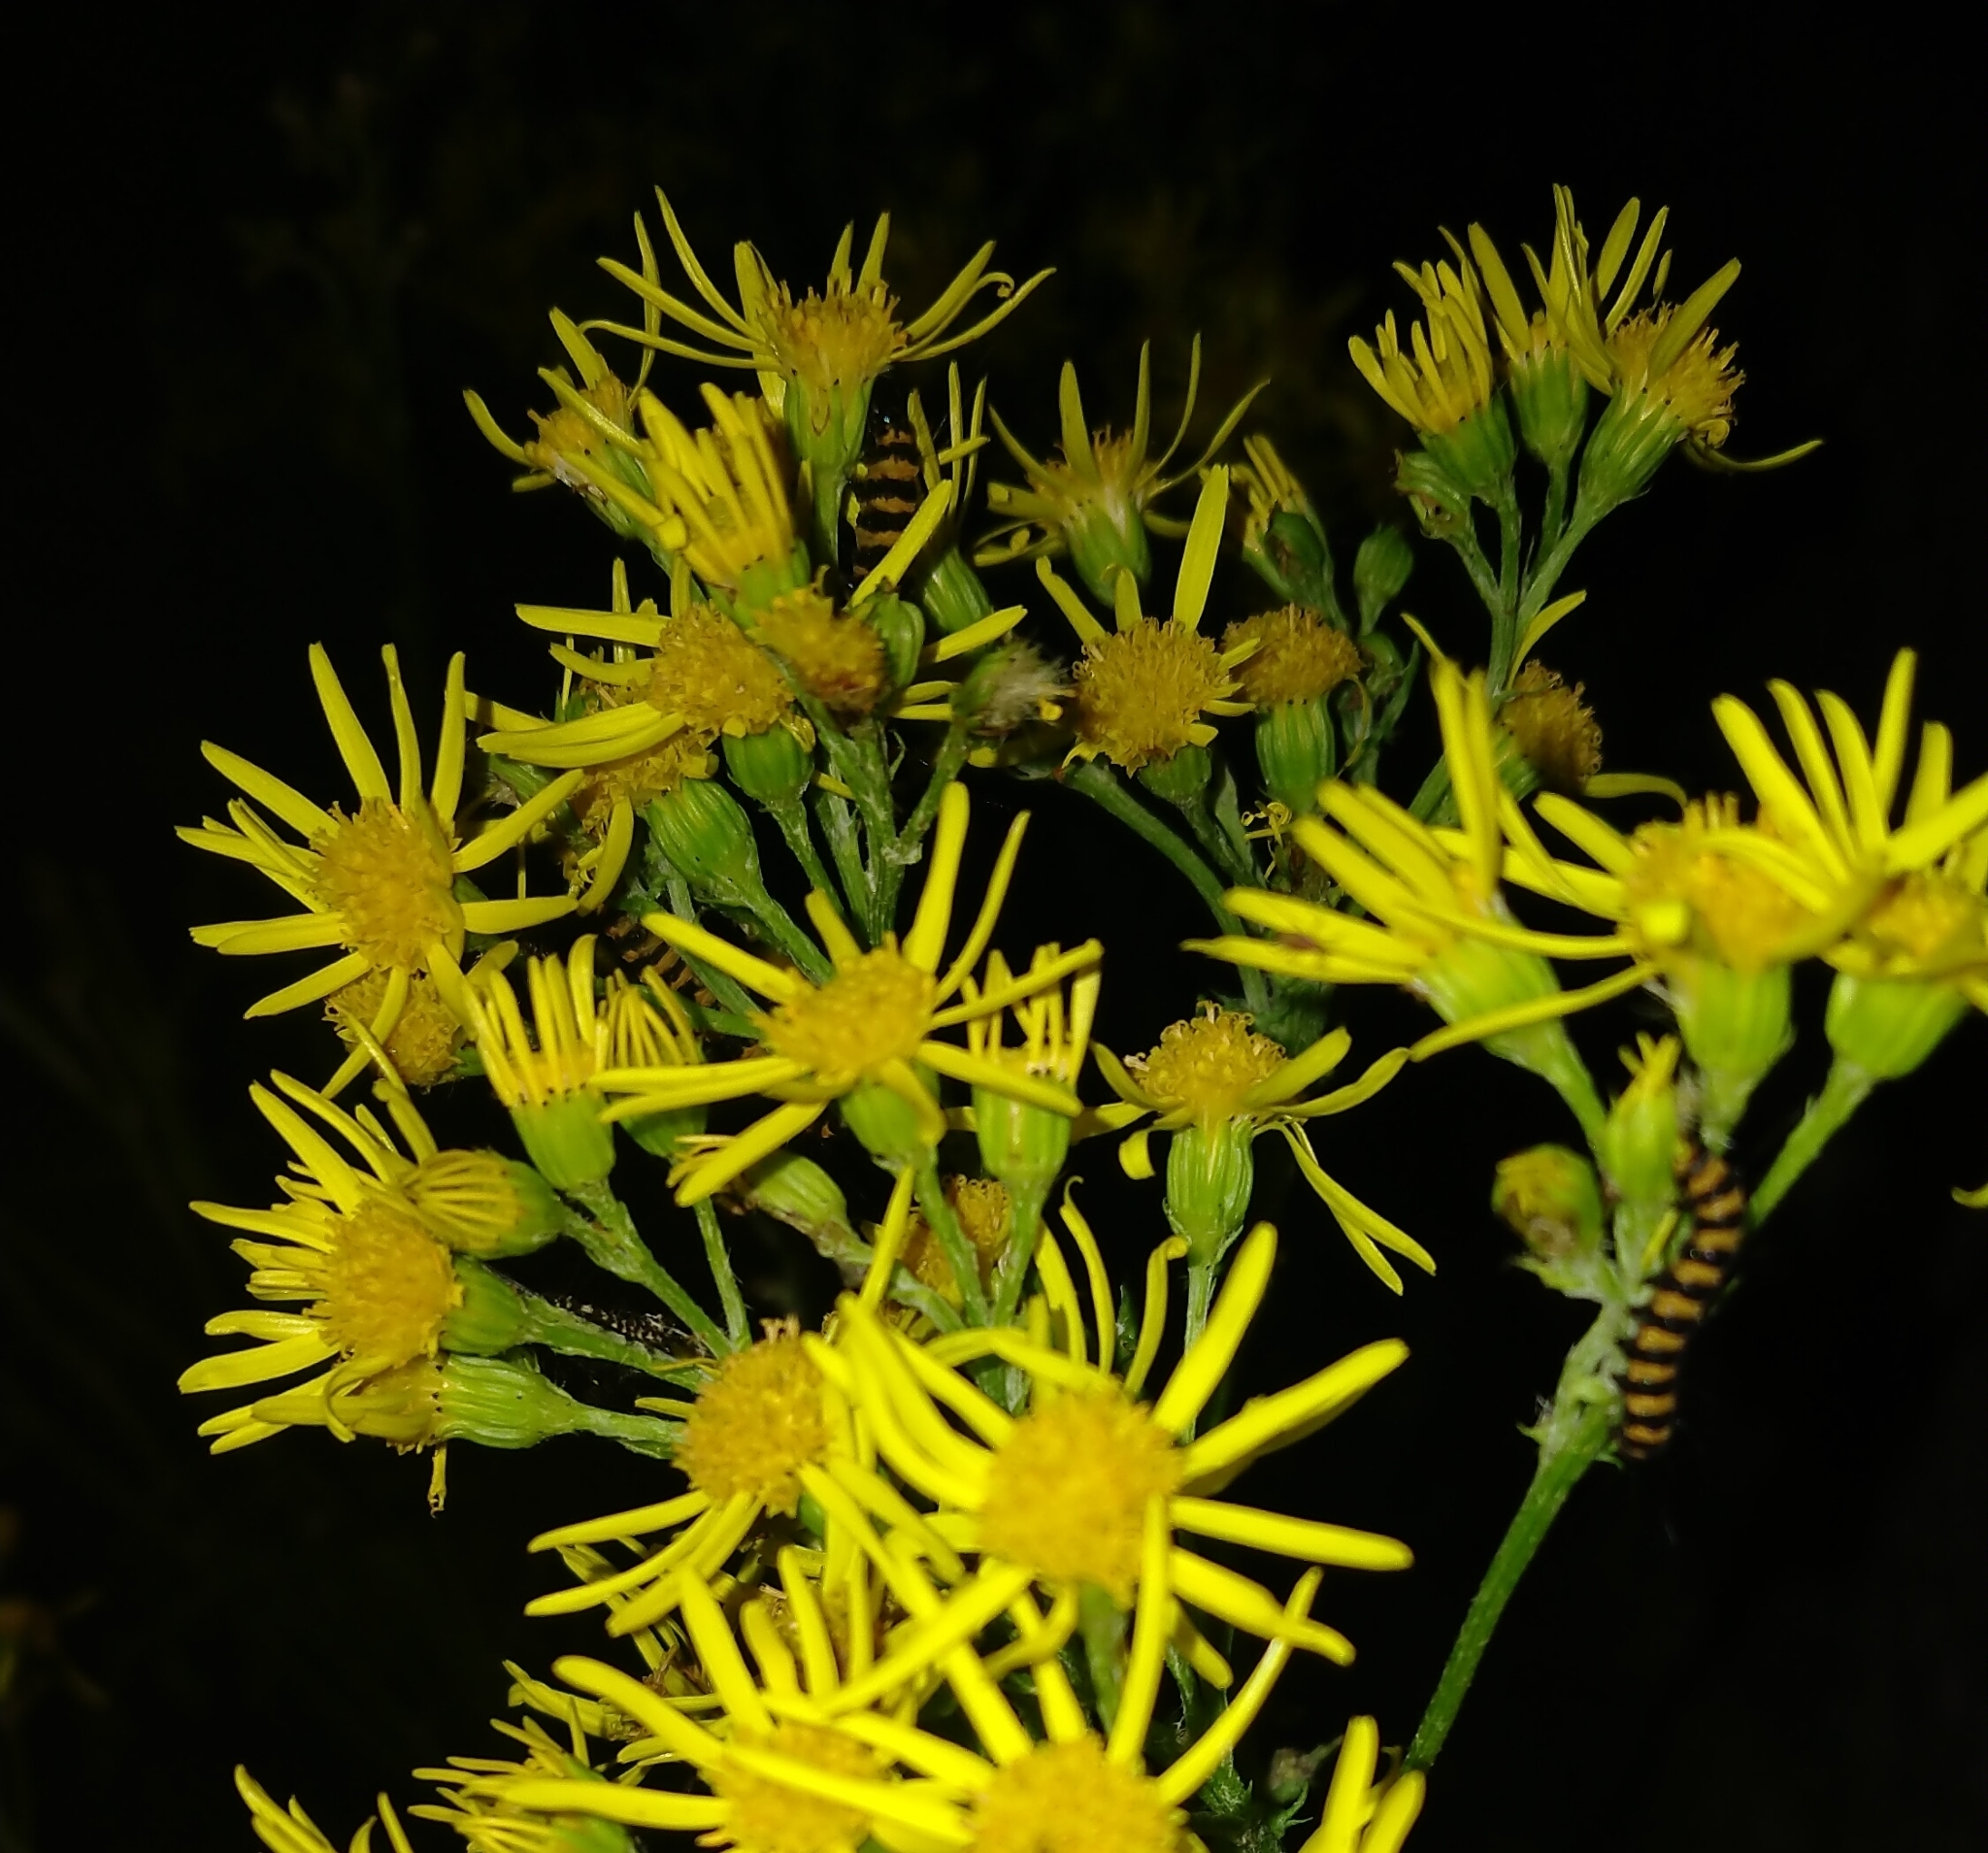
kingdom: Animalia
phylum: Arthropoda
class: Insecta
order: Lepidoptera
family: Erebidae
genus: Tyria
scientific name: Tyria jacobaeae
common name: Cinnabar
